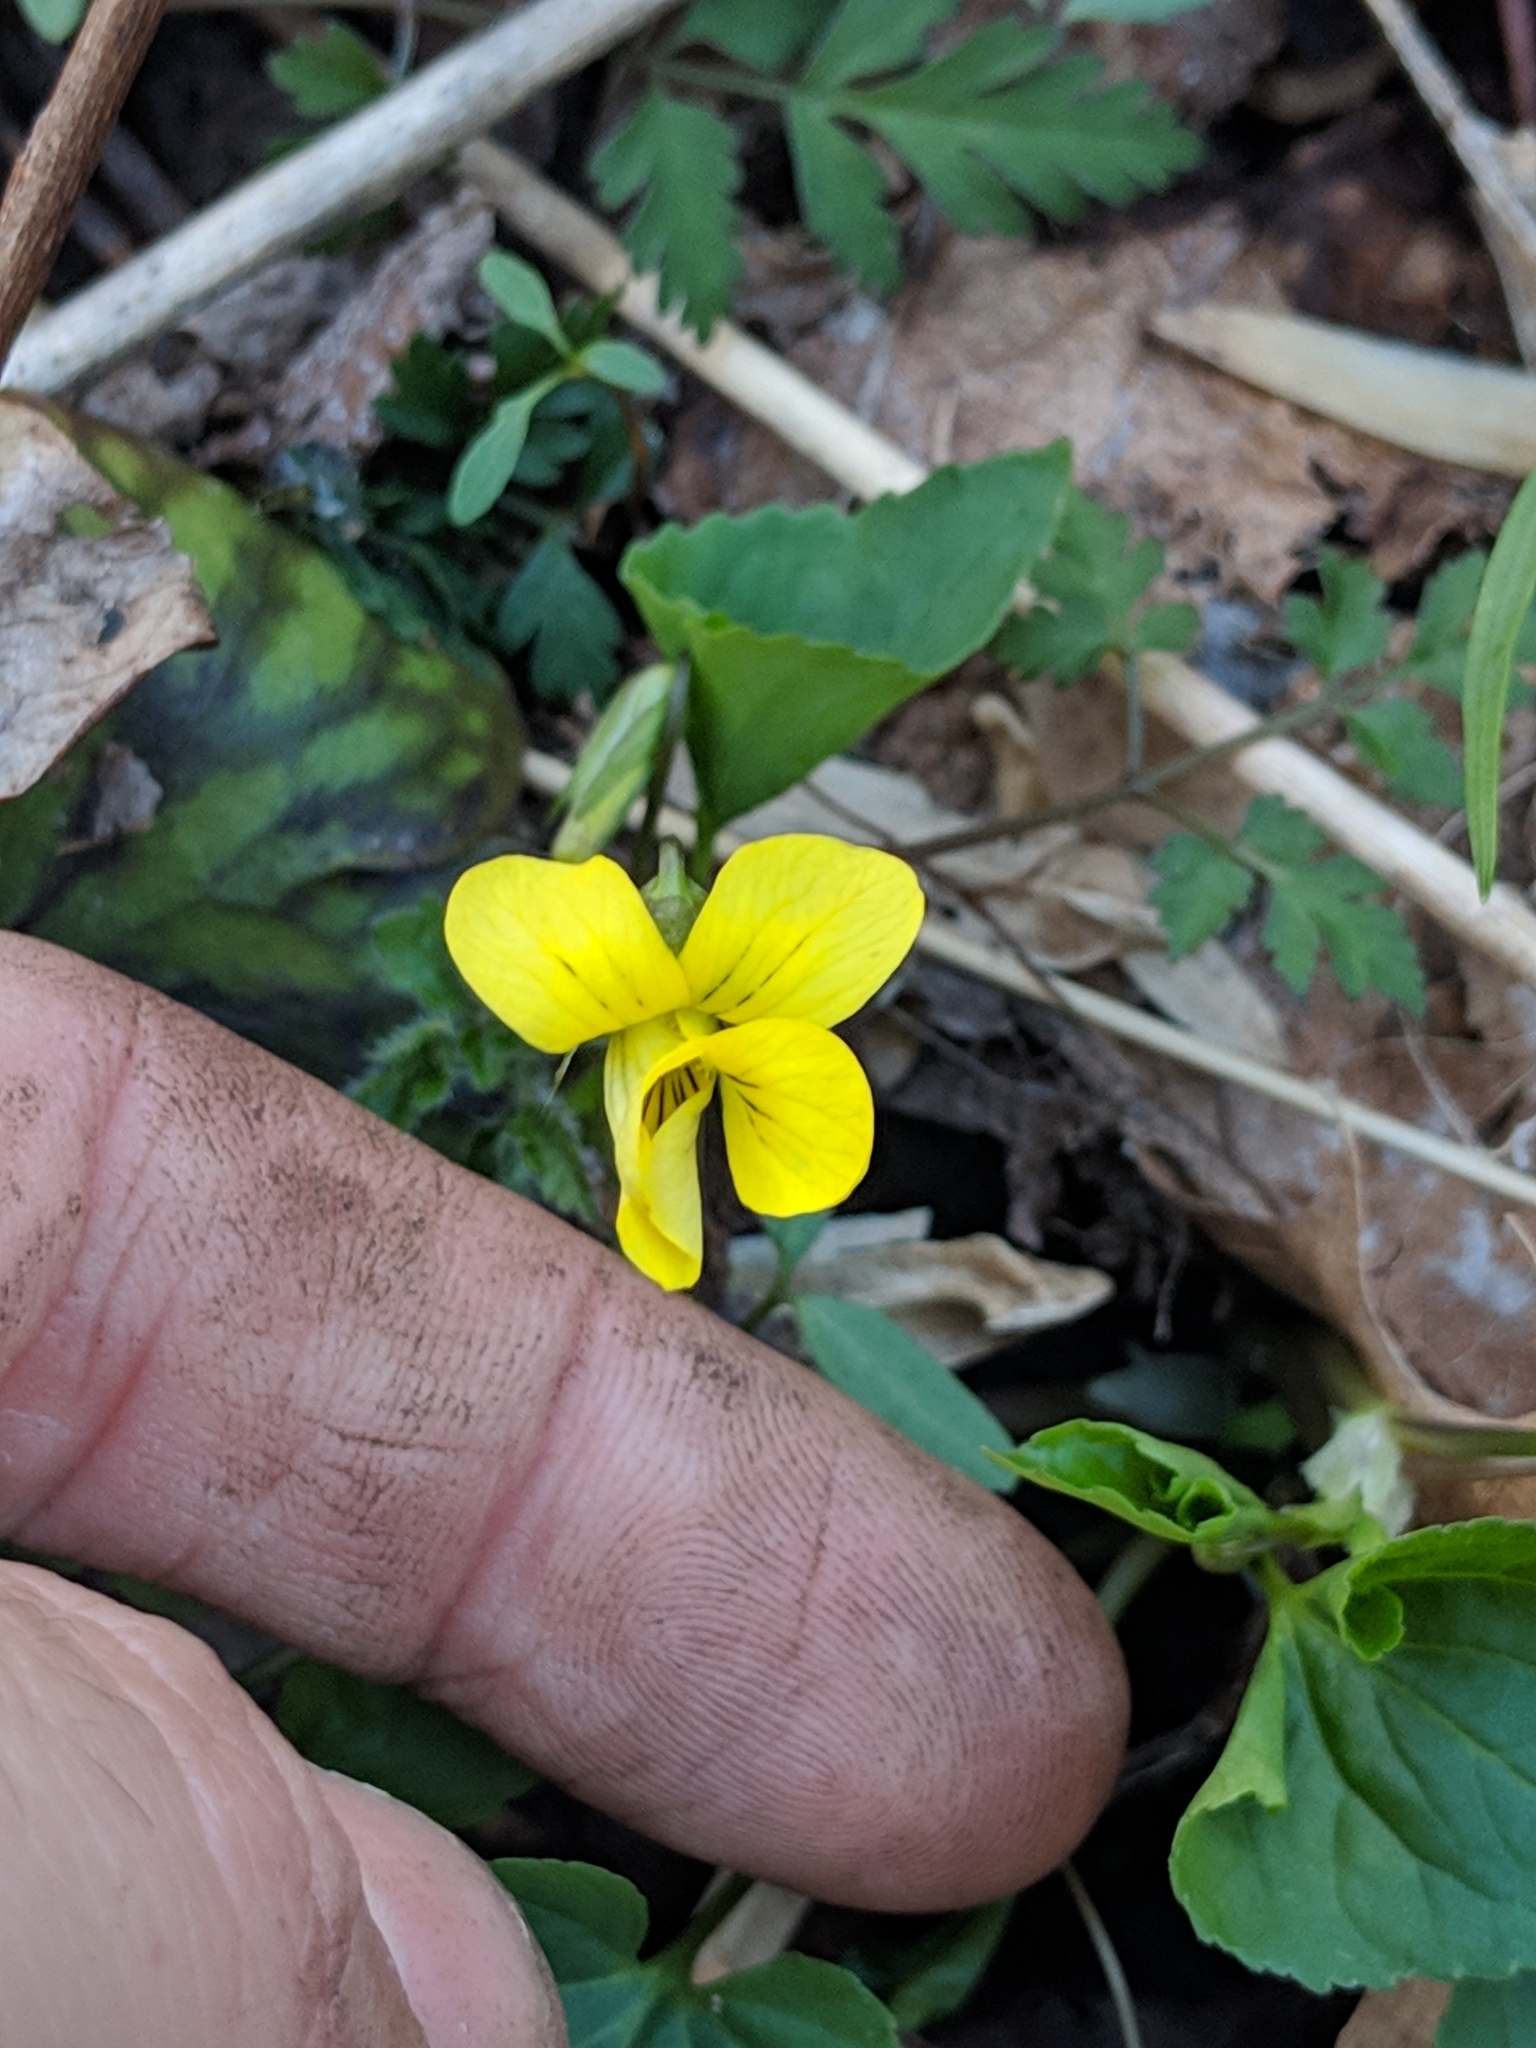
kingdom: Plantae
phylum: Tracheophyta
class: Magnoliopsida
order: Malpighiales
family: Violaceae
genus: Viola
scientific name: Viola eriocarpa
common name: Smooth yellow violet
